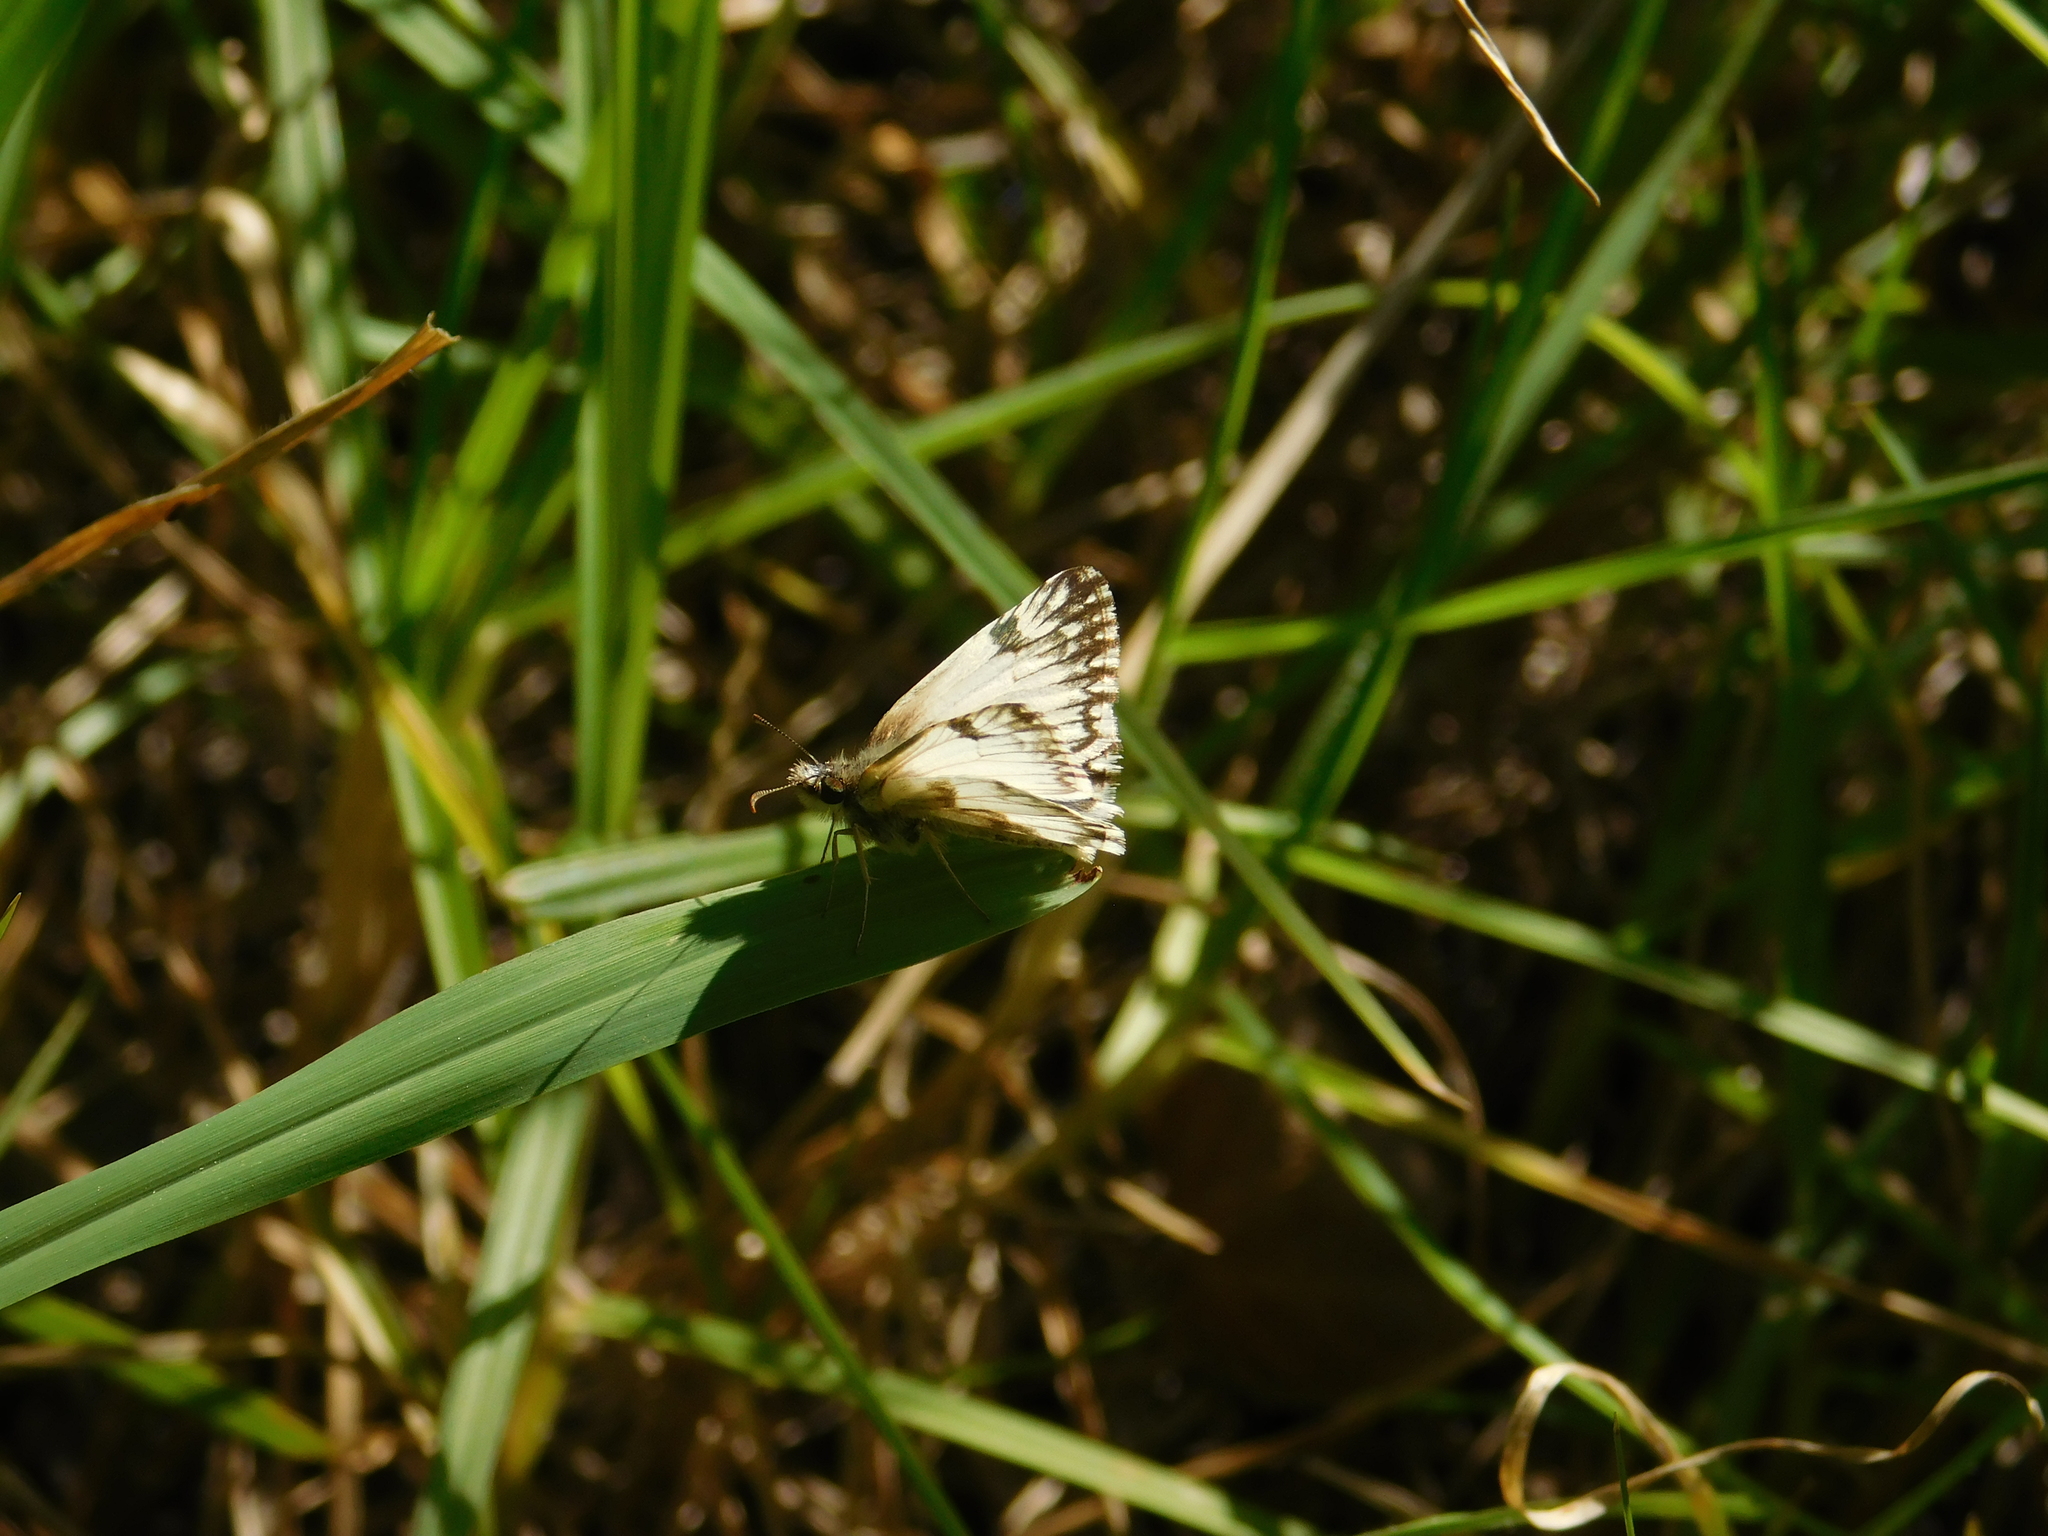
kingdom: Animalia
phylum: Arthropoda
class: Insecta
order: Lepidoptera
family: Hesperiidae
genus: Heliopetes
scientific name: Heliopetes omrina
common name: Stained white-skipper
